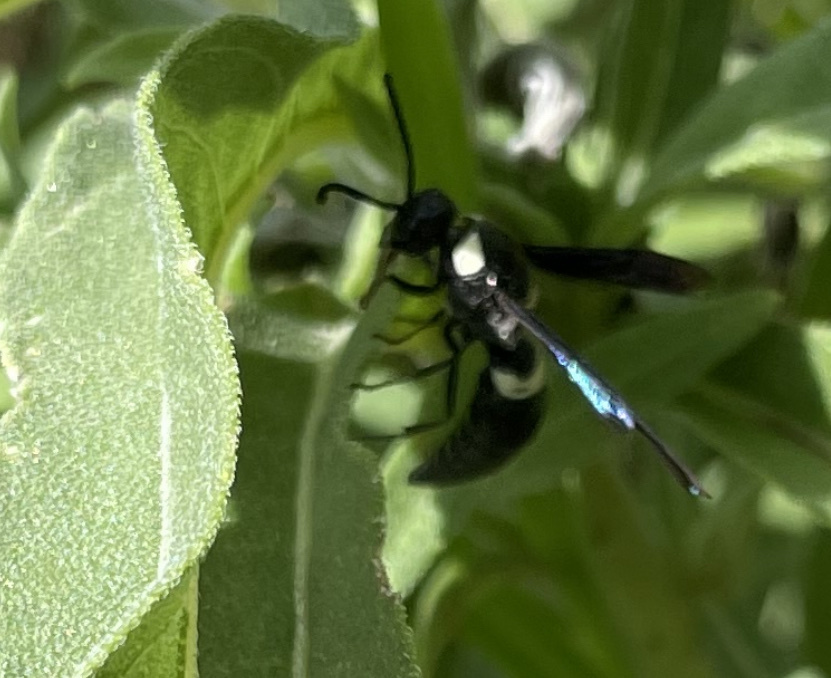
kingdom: Animalia
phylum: Arthropoda
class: Insecta
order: Hymenoptera
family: Eumenidae
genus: Monobia
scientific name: Monobia quadridens
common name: Four-toothed mason wasp
